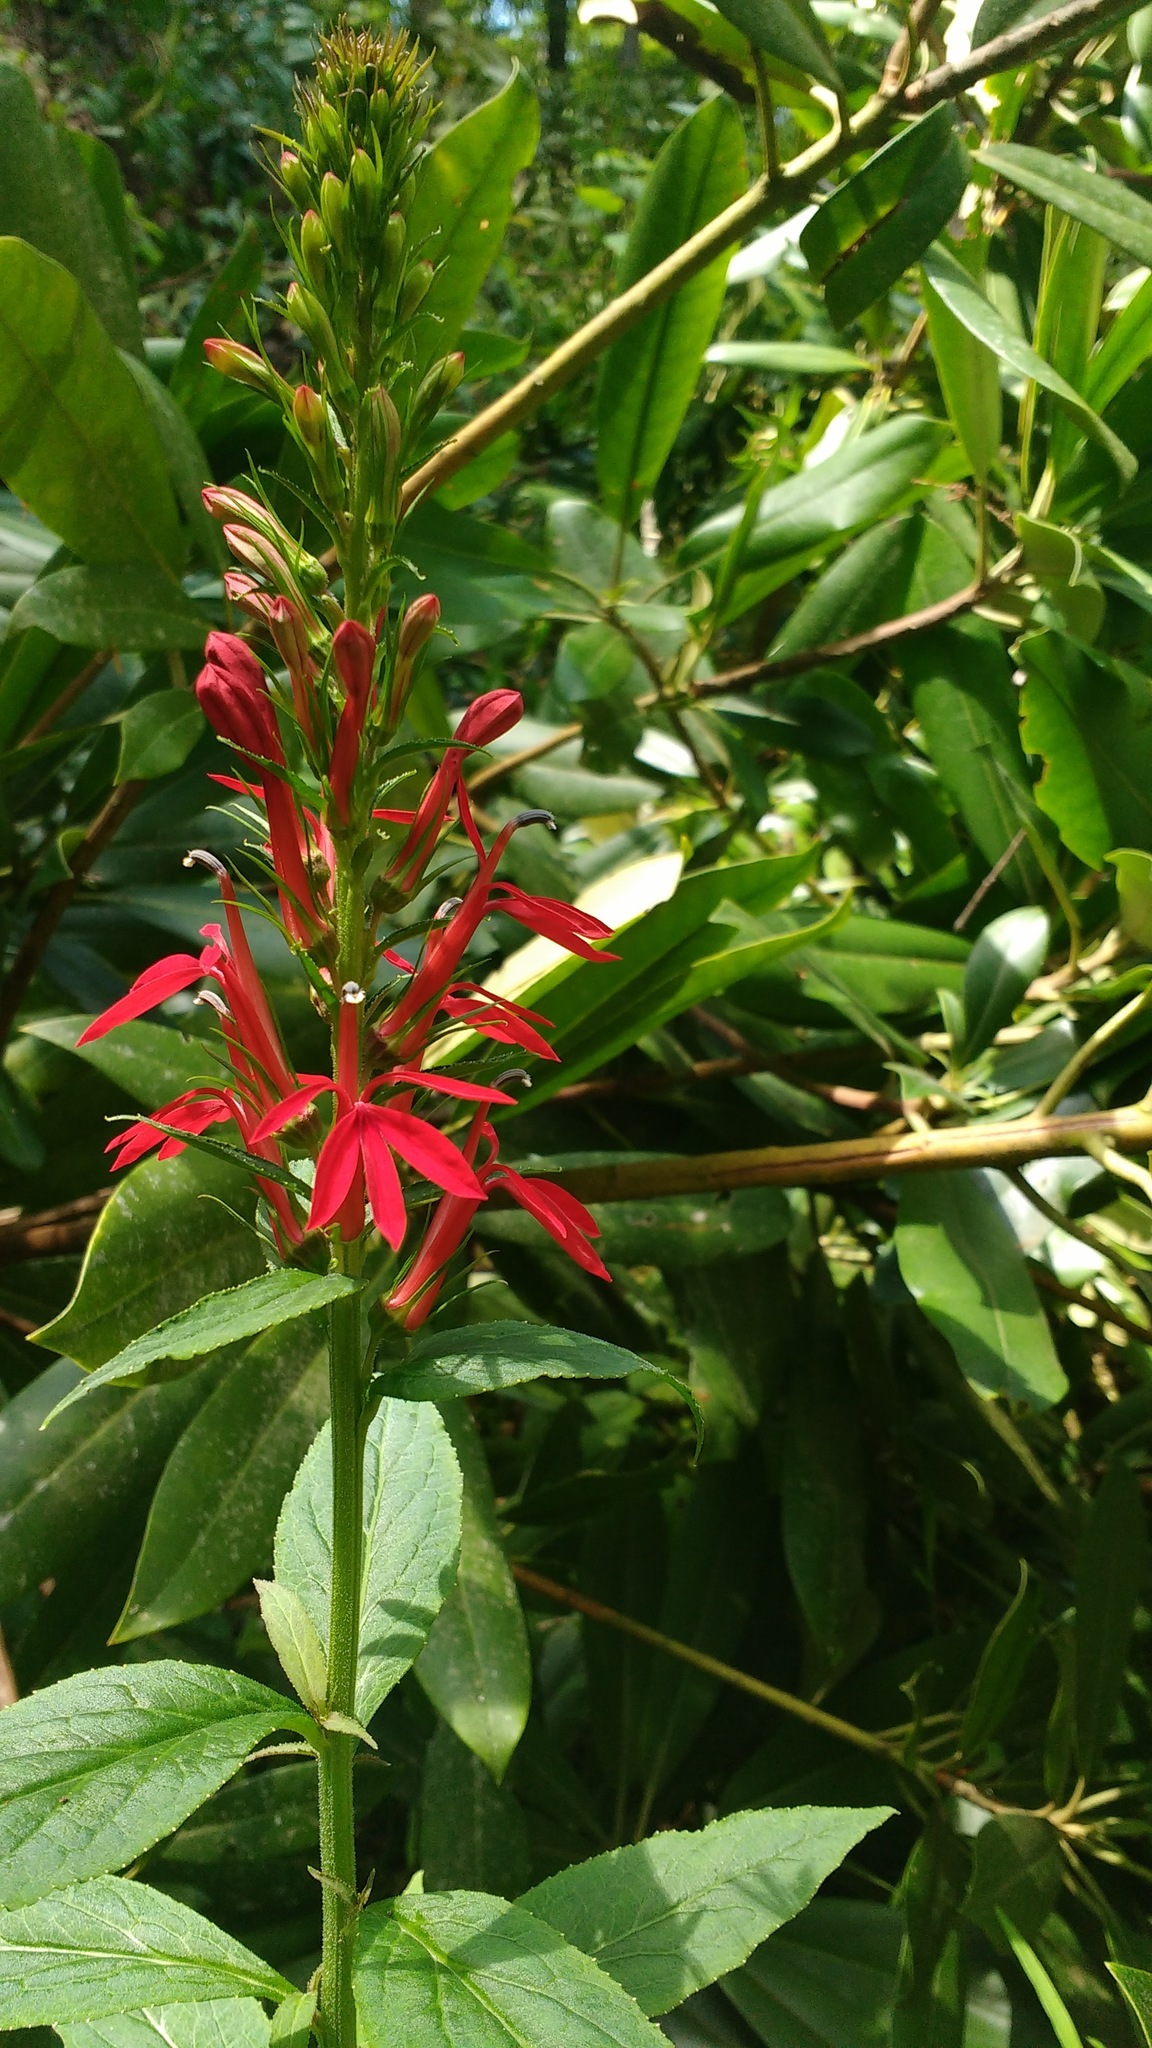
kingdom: Plantae
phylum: Tracheophyta
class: Magnoliopsida
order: Asterales
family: Campanulaceae
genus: Lobelia
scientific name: Lobelia cardinalis
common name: Cardinal flower
